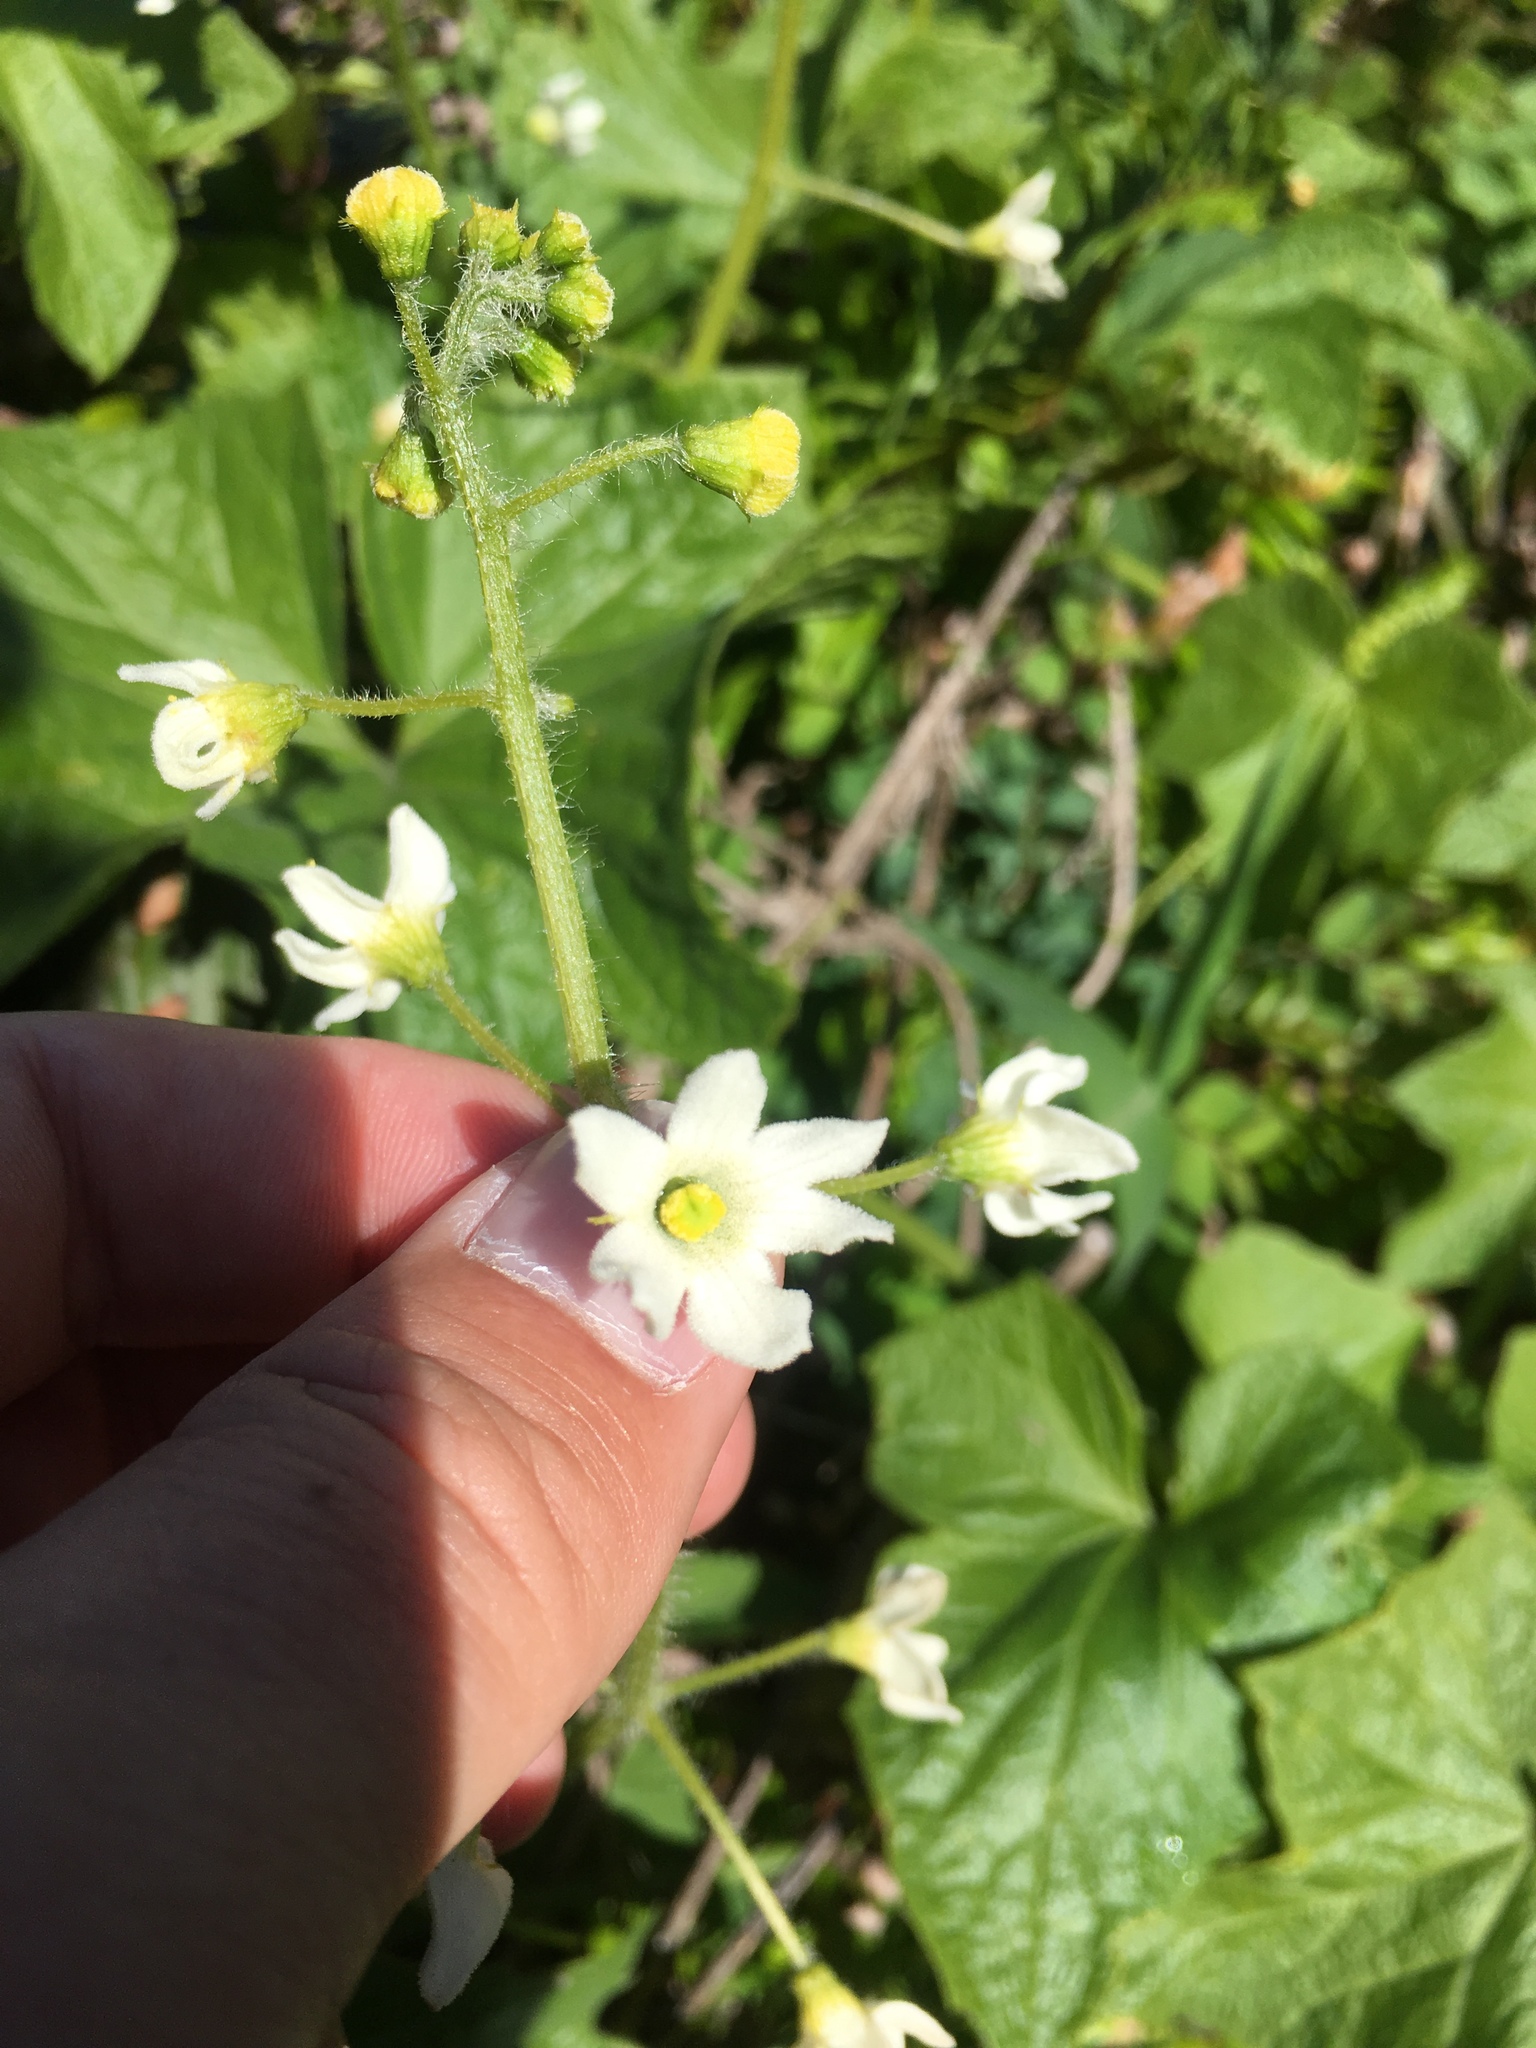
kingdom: Plantae
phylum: Tracheophyta
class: Magnoliopsida
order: Cucurbitales
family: Cucurbitaceae
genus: Marah
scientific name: Marah oregana
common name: Coastal manroot
